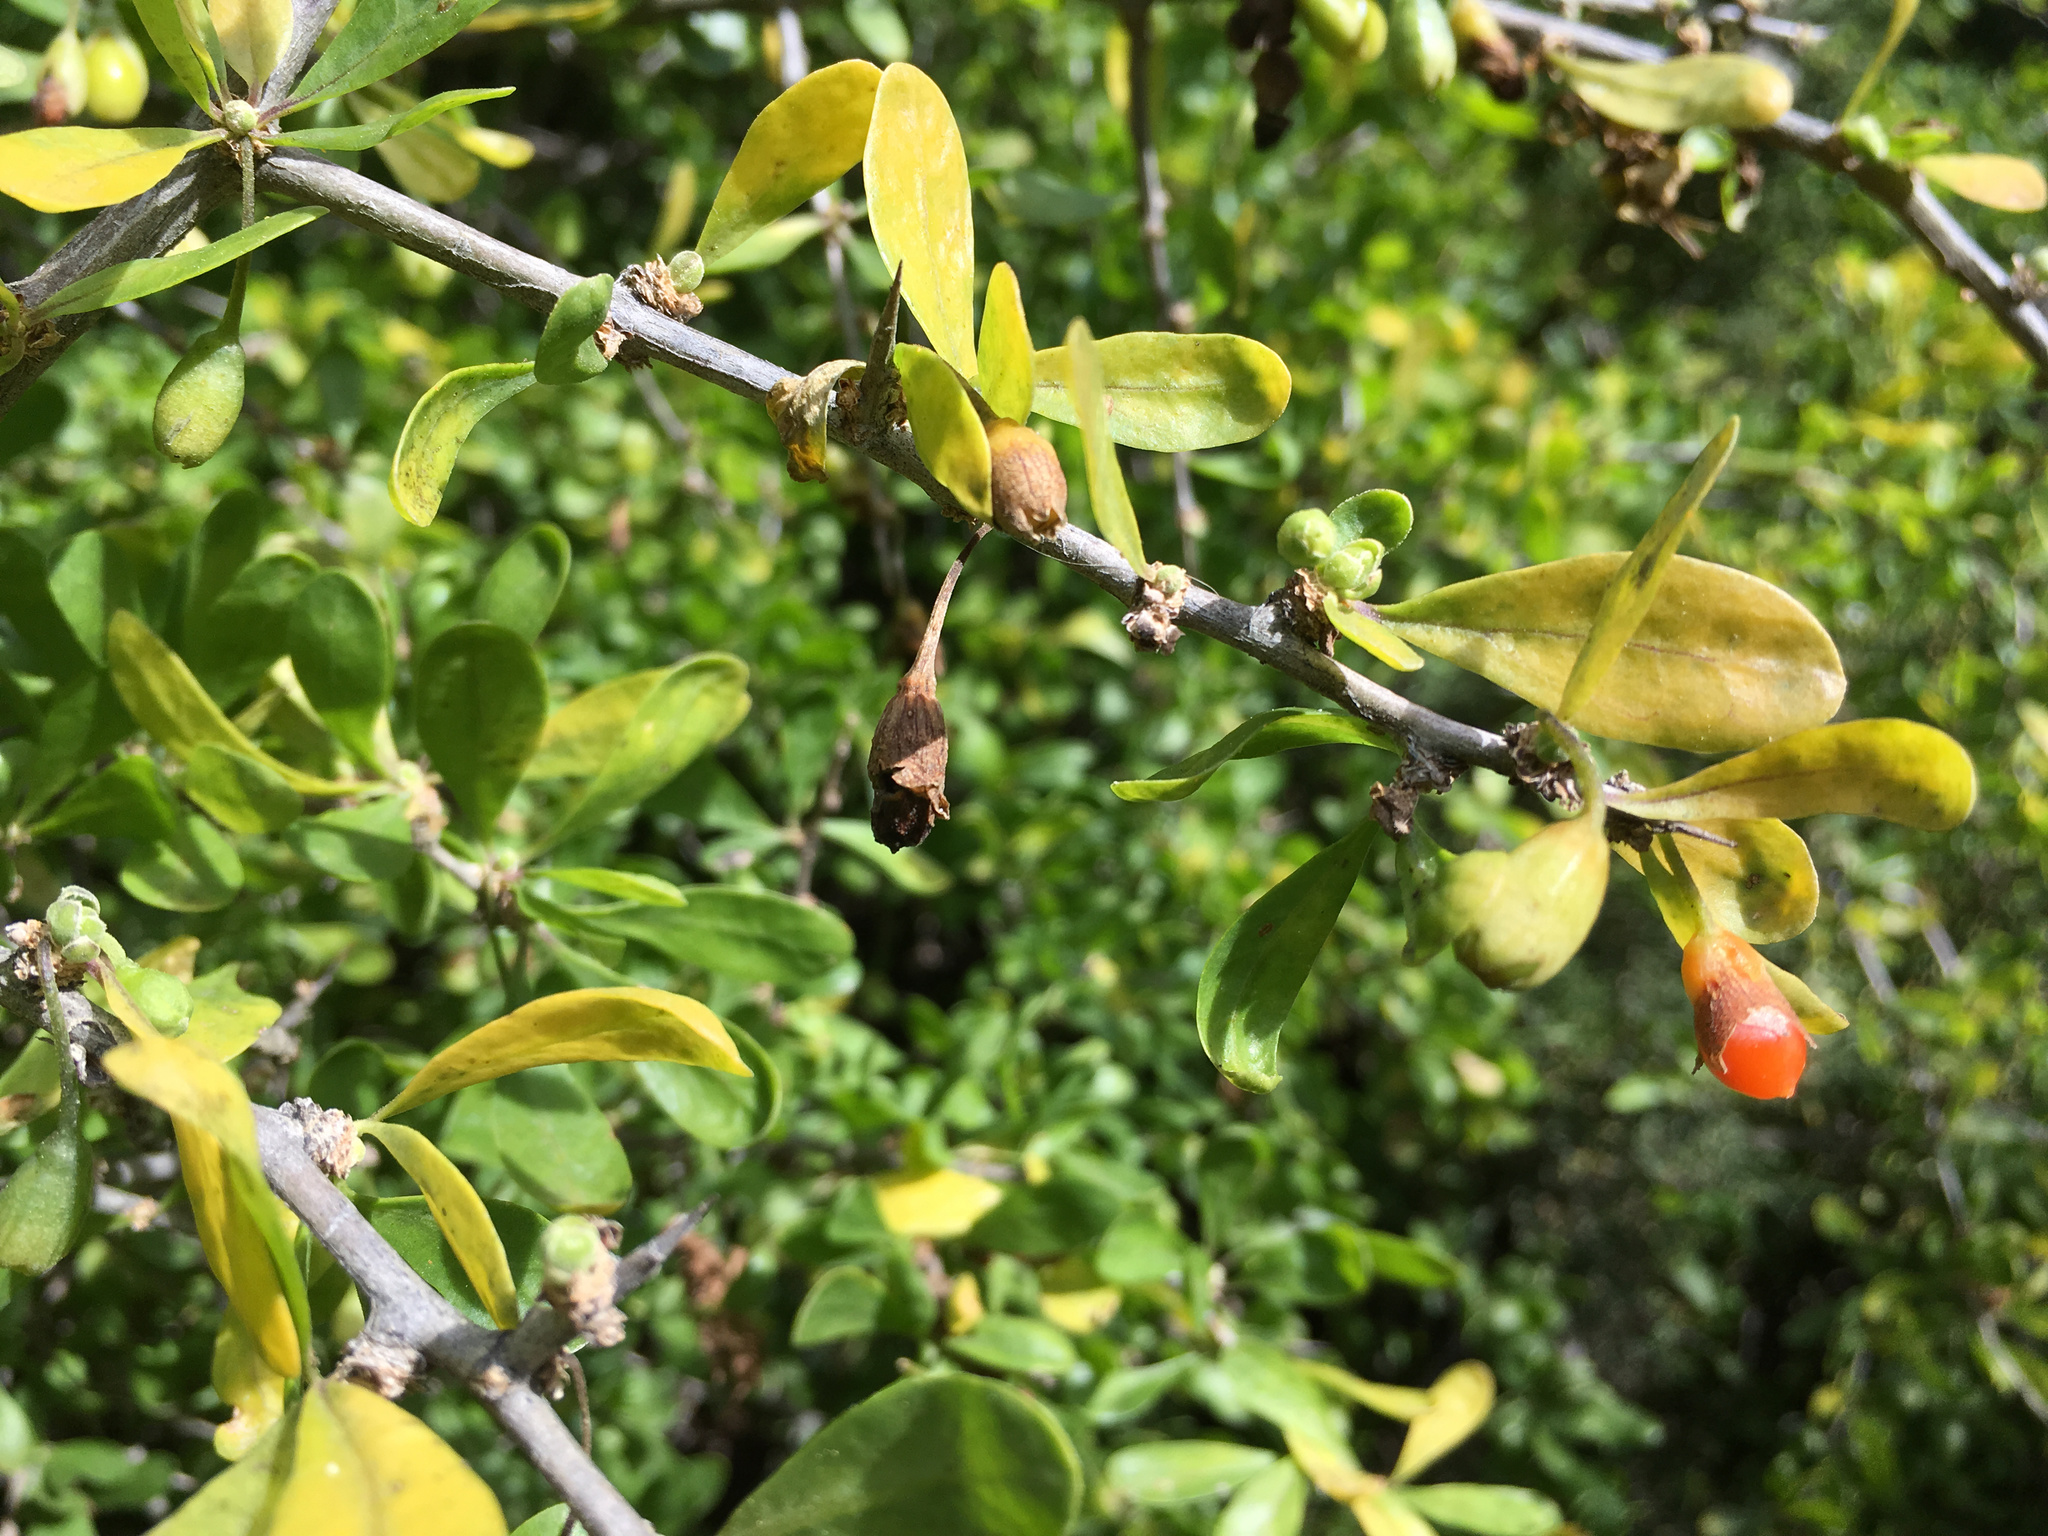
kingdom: Plantae
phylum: Tracheophyta
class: Magnoliopsida
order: Solanales
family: Solanaceae
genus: Lycium
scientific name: Lycium ferocissimum
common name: African boxthorn
